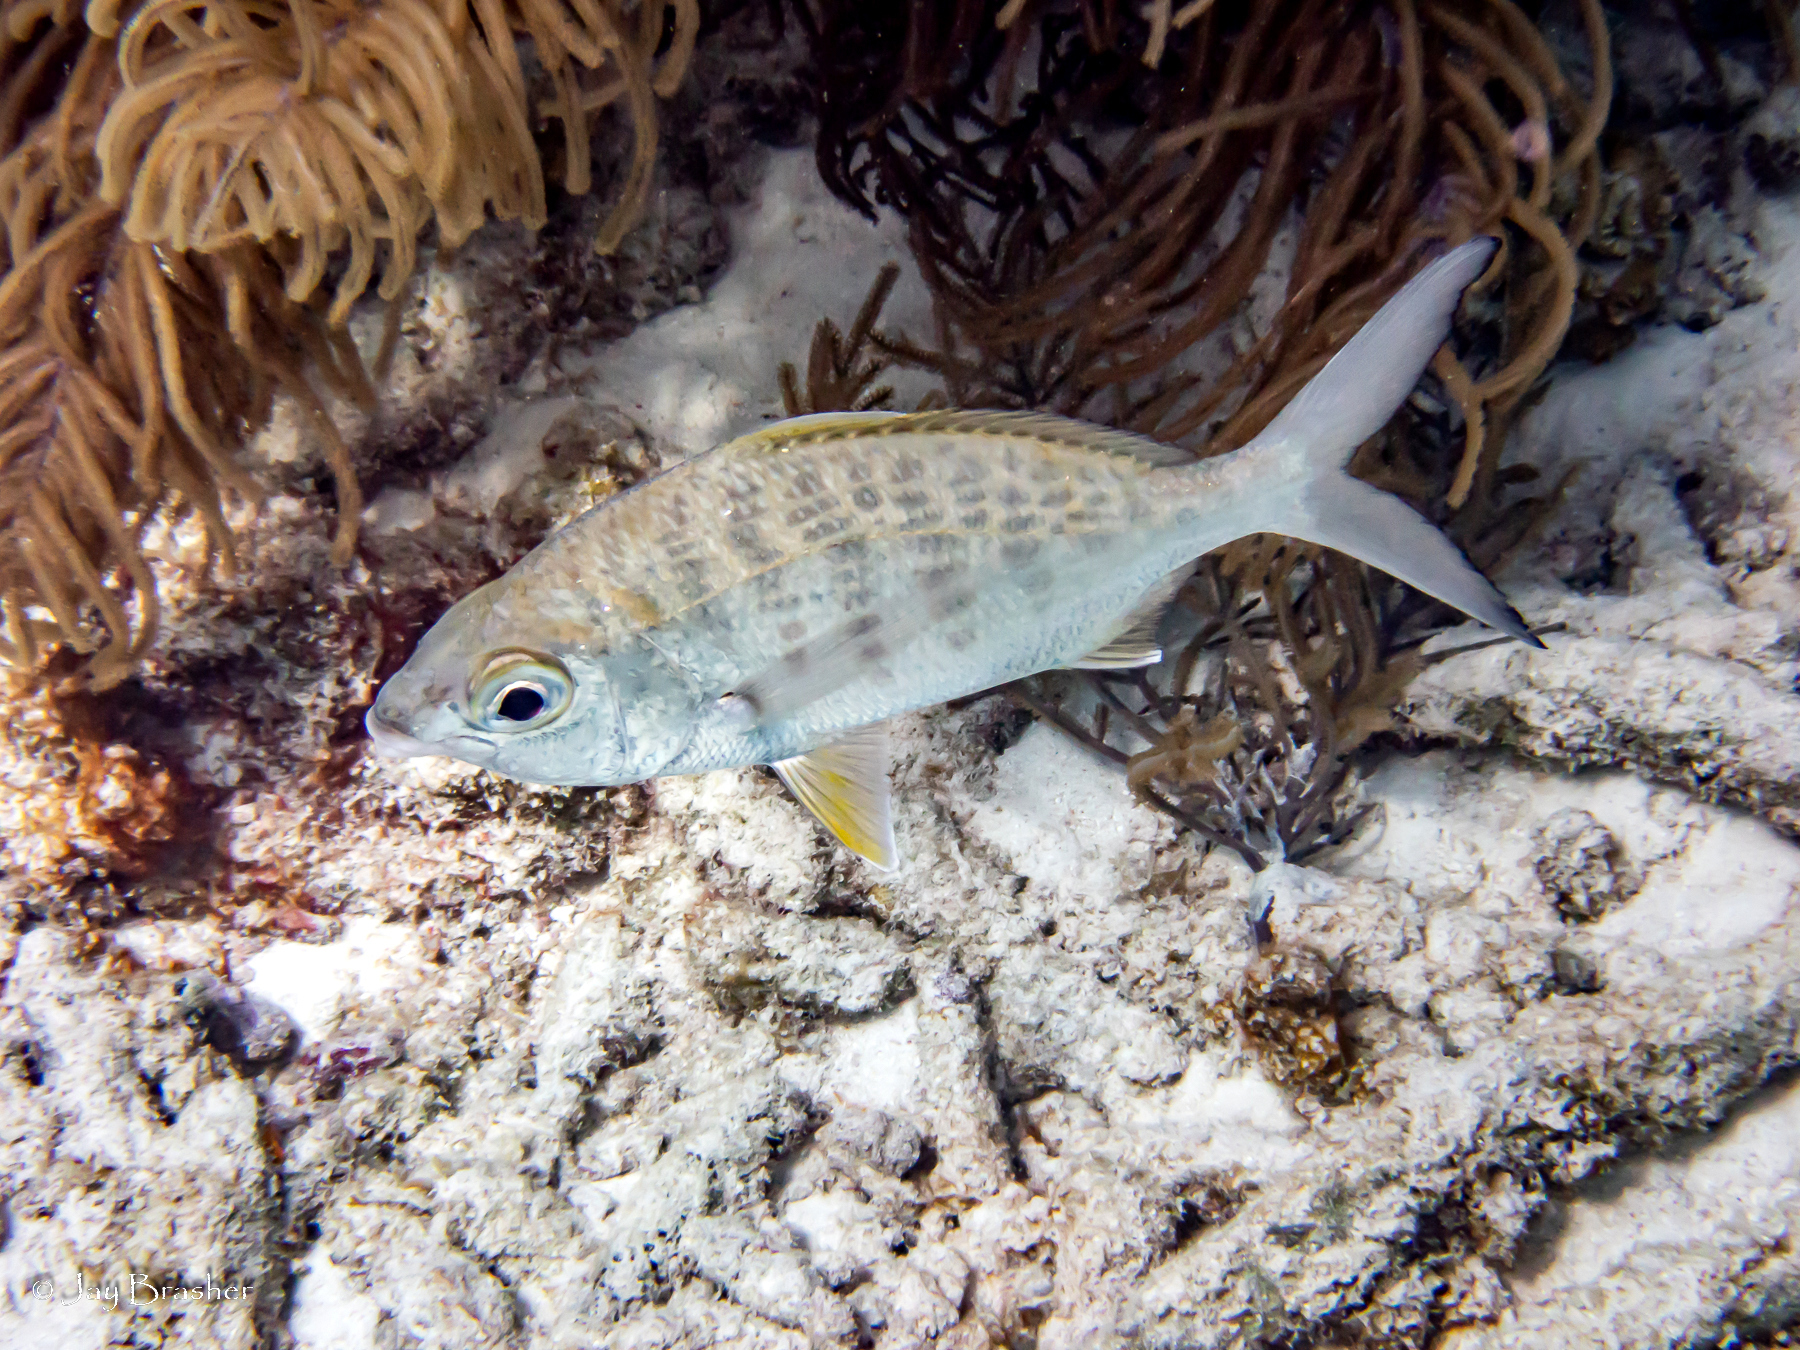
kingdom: Animalia
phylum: Chordata
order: Perciformes
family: Gerreidae
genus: Gerres
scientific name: Gerres cinereus
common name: Hedow
